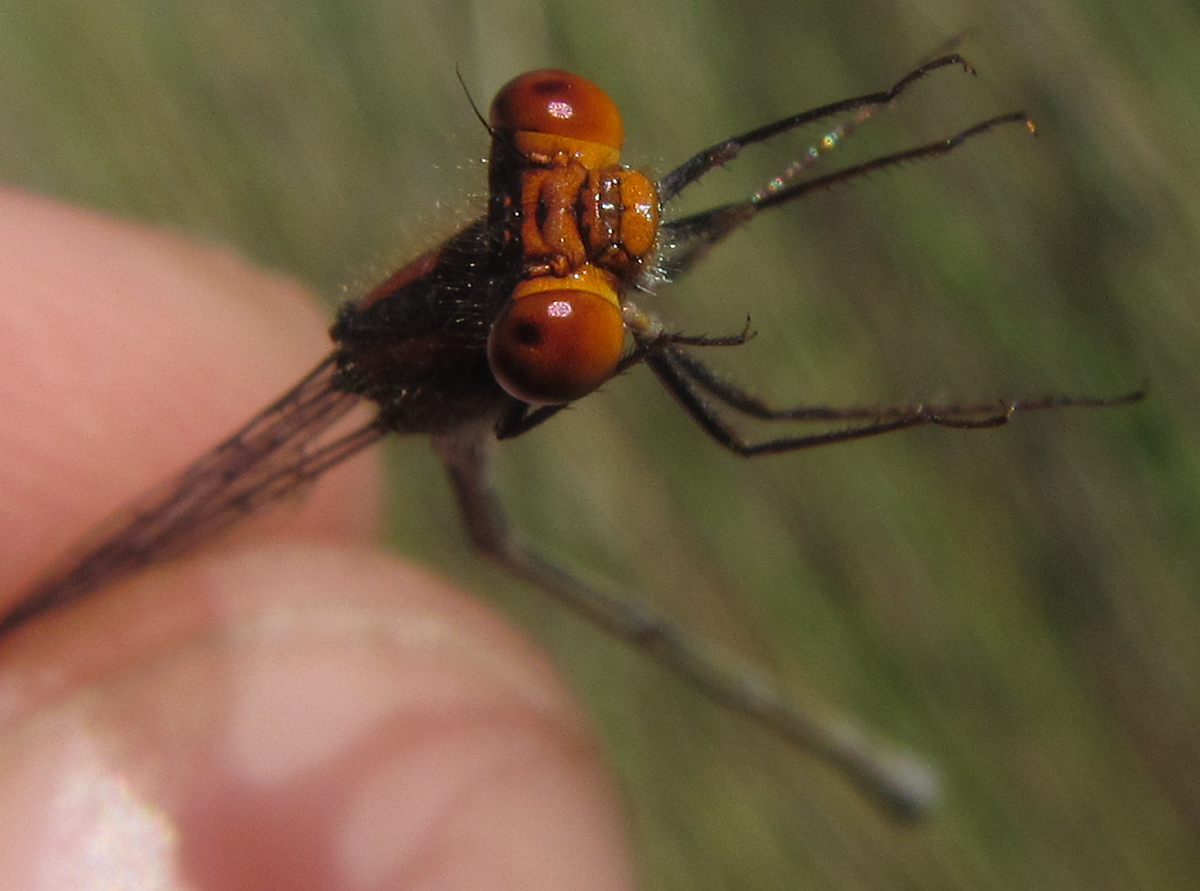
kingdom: Animalia
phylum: Arthropoda
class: Insecta
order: Odonata
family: Coenagrionidae
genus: Pseudagrion
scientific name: Pseudagrion rufostigma
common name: Dark sprite
